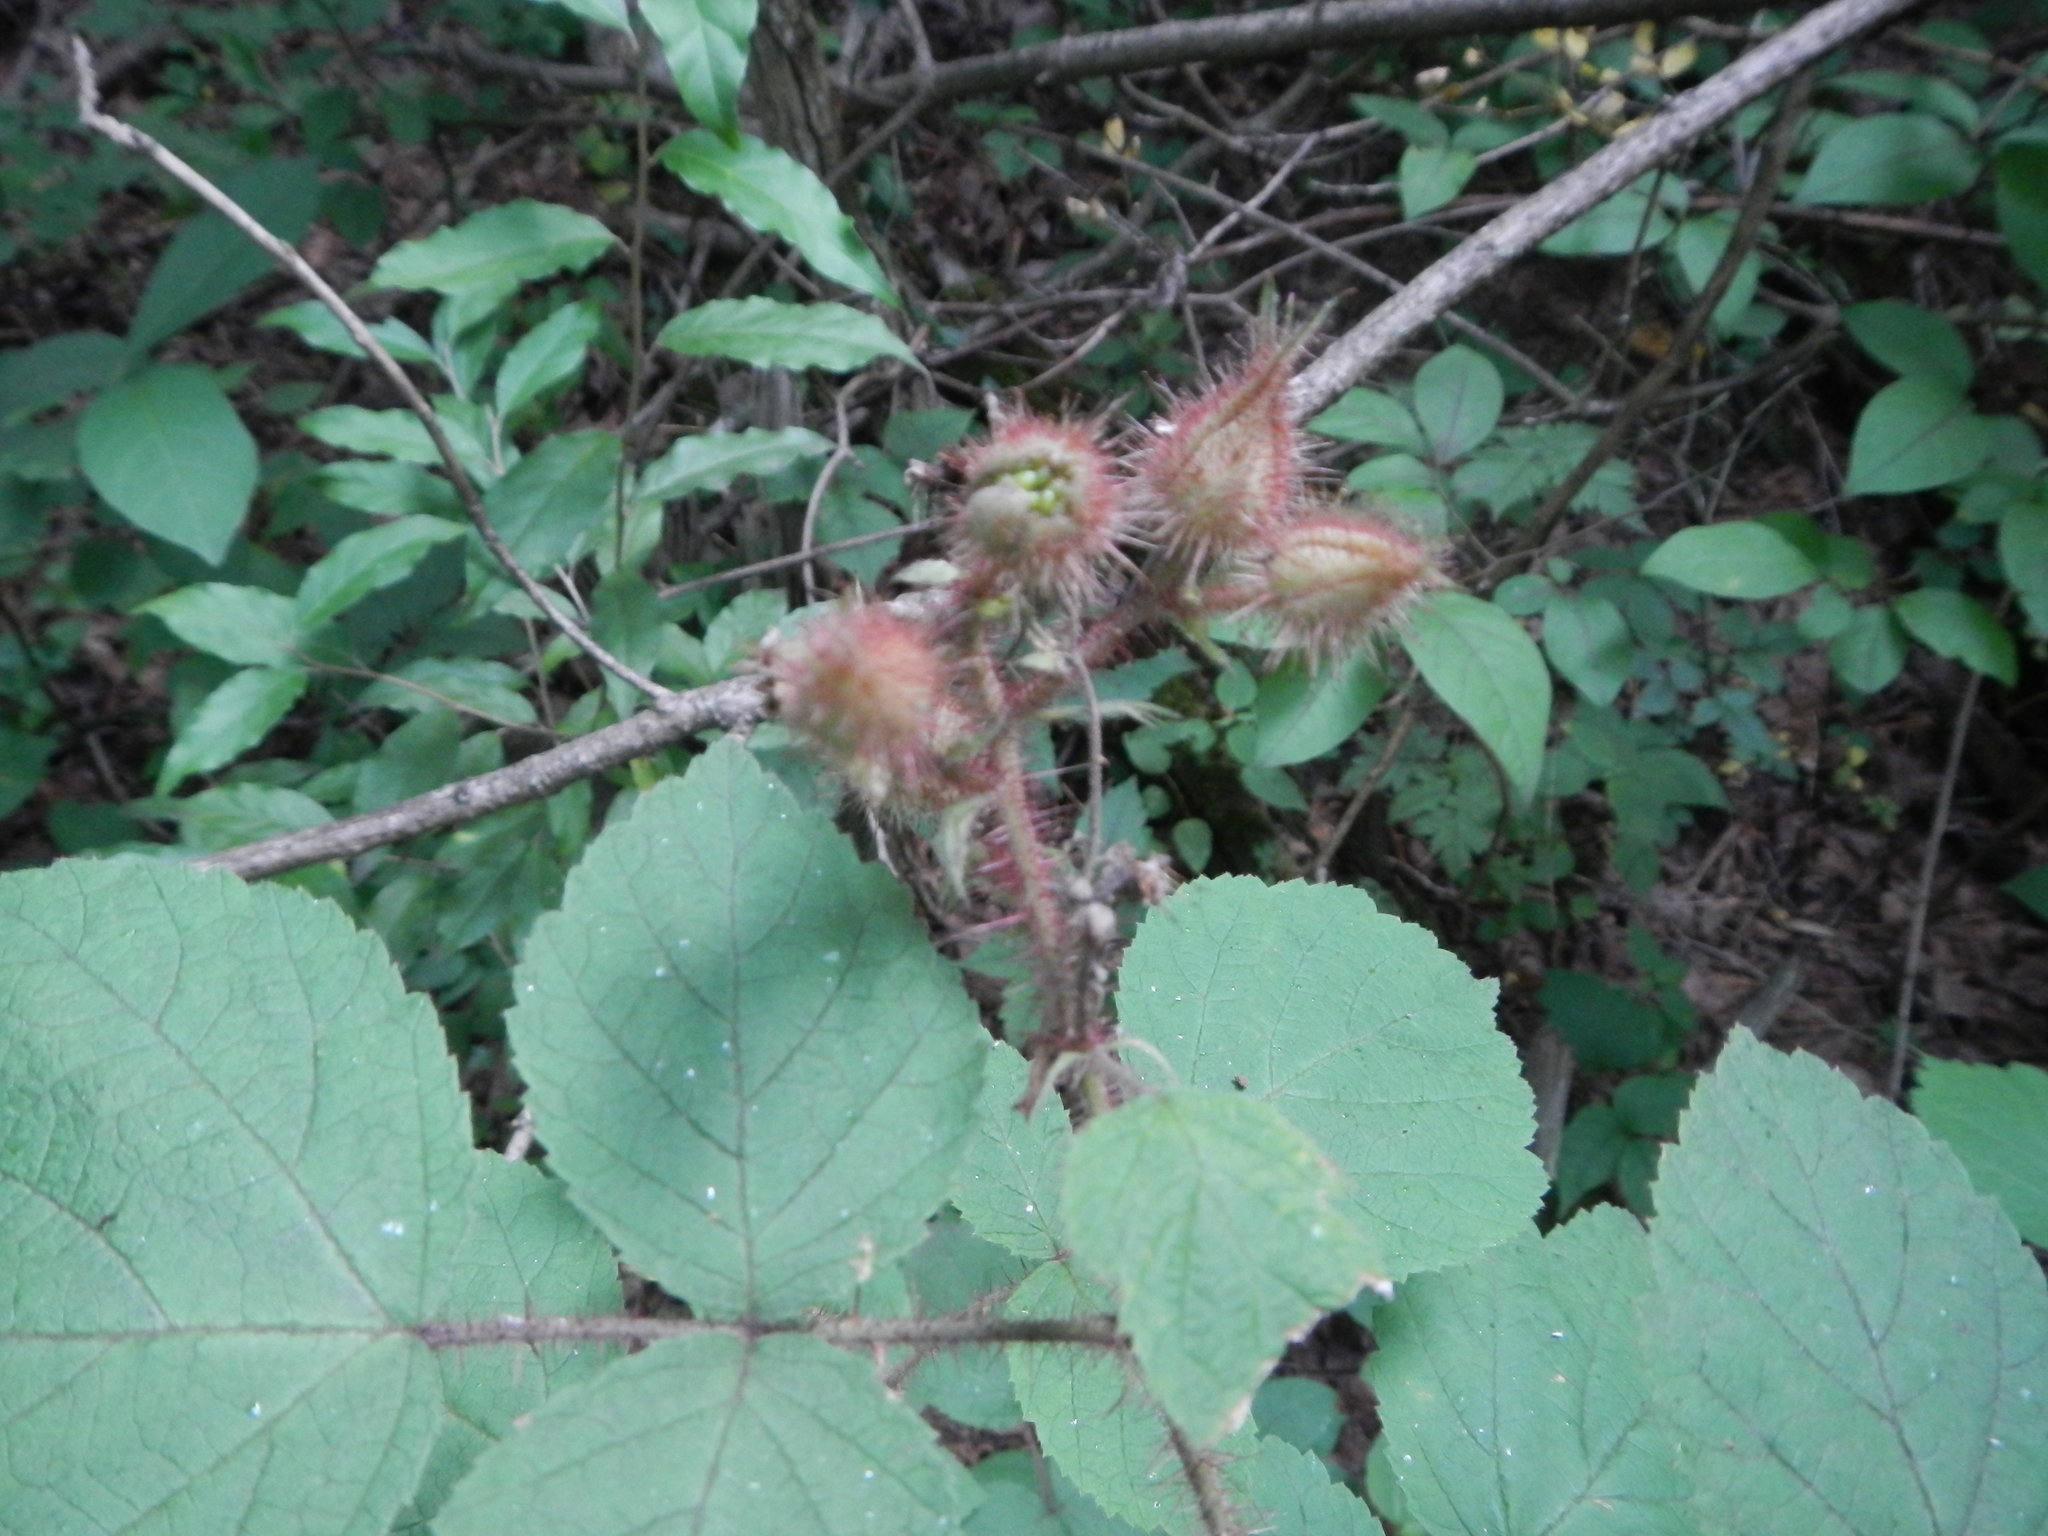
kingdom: Plantae
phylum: Tracheophyta
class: Magnoliopsida
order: Rosales
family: Rosaceae
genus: Rubus
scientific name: Rubus phoenicolasius
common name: Japanese wineberry
